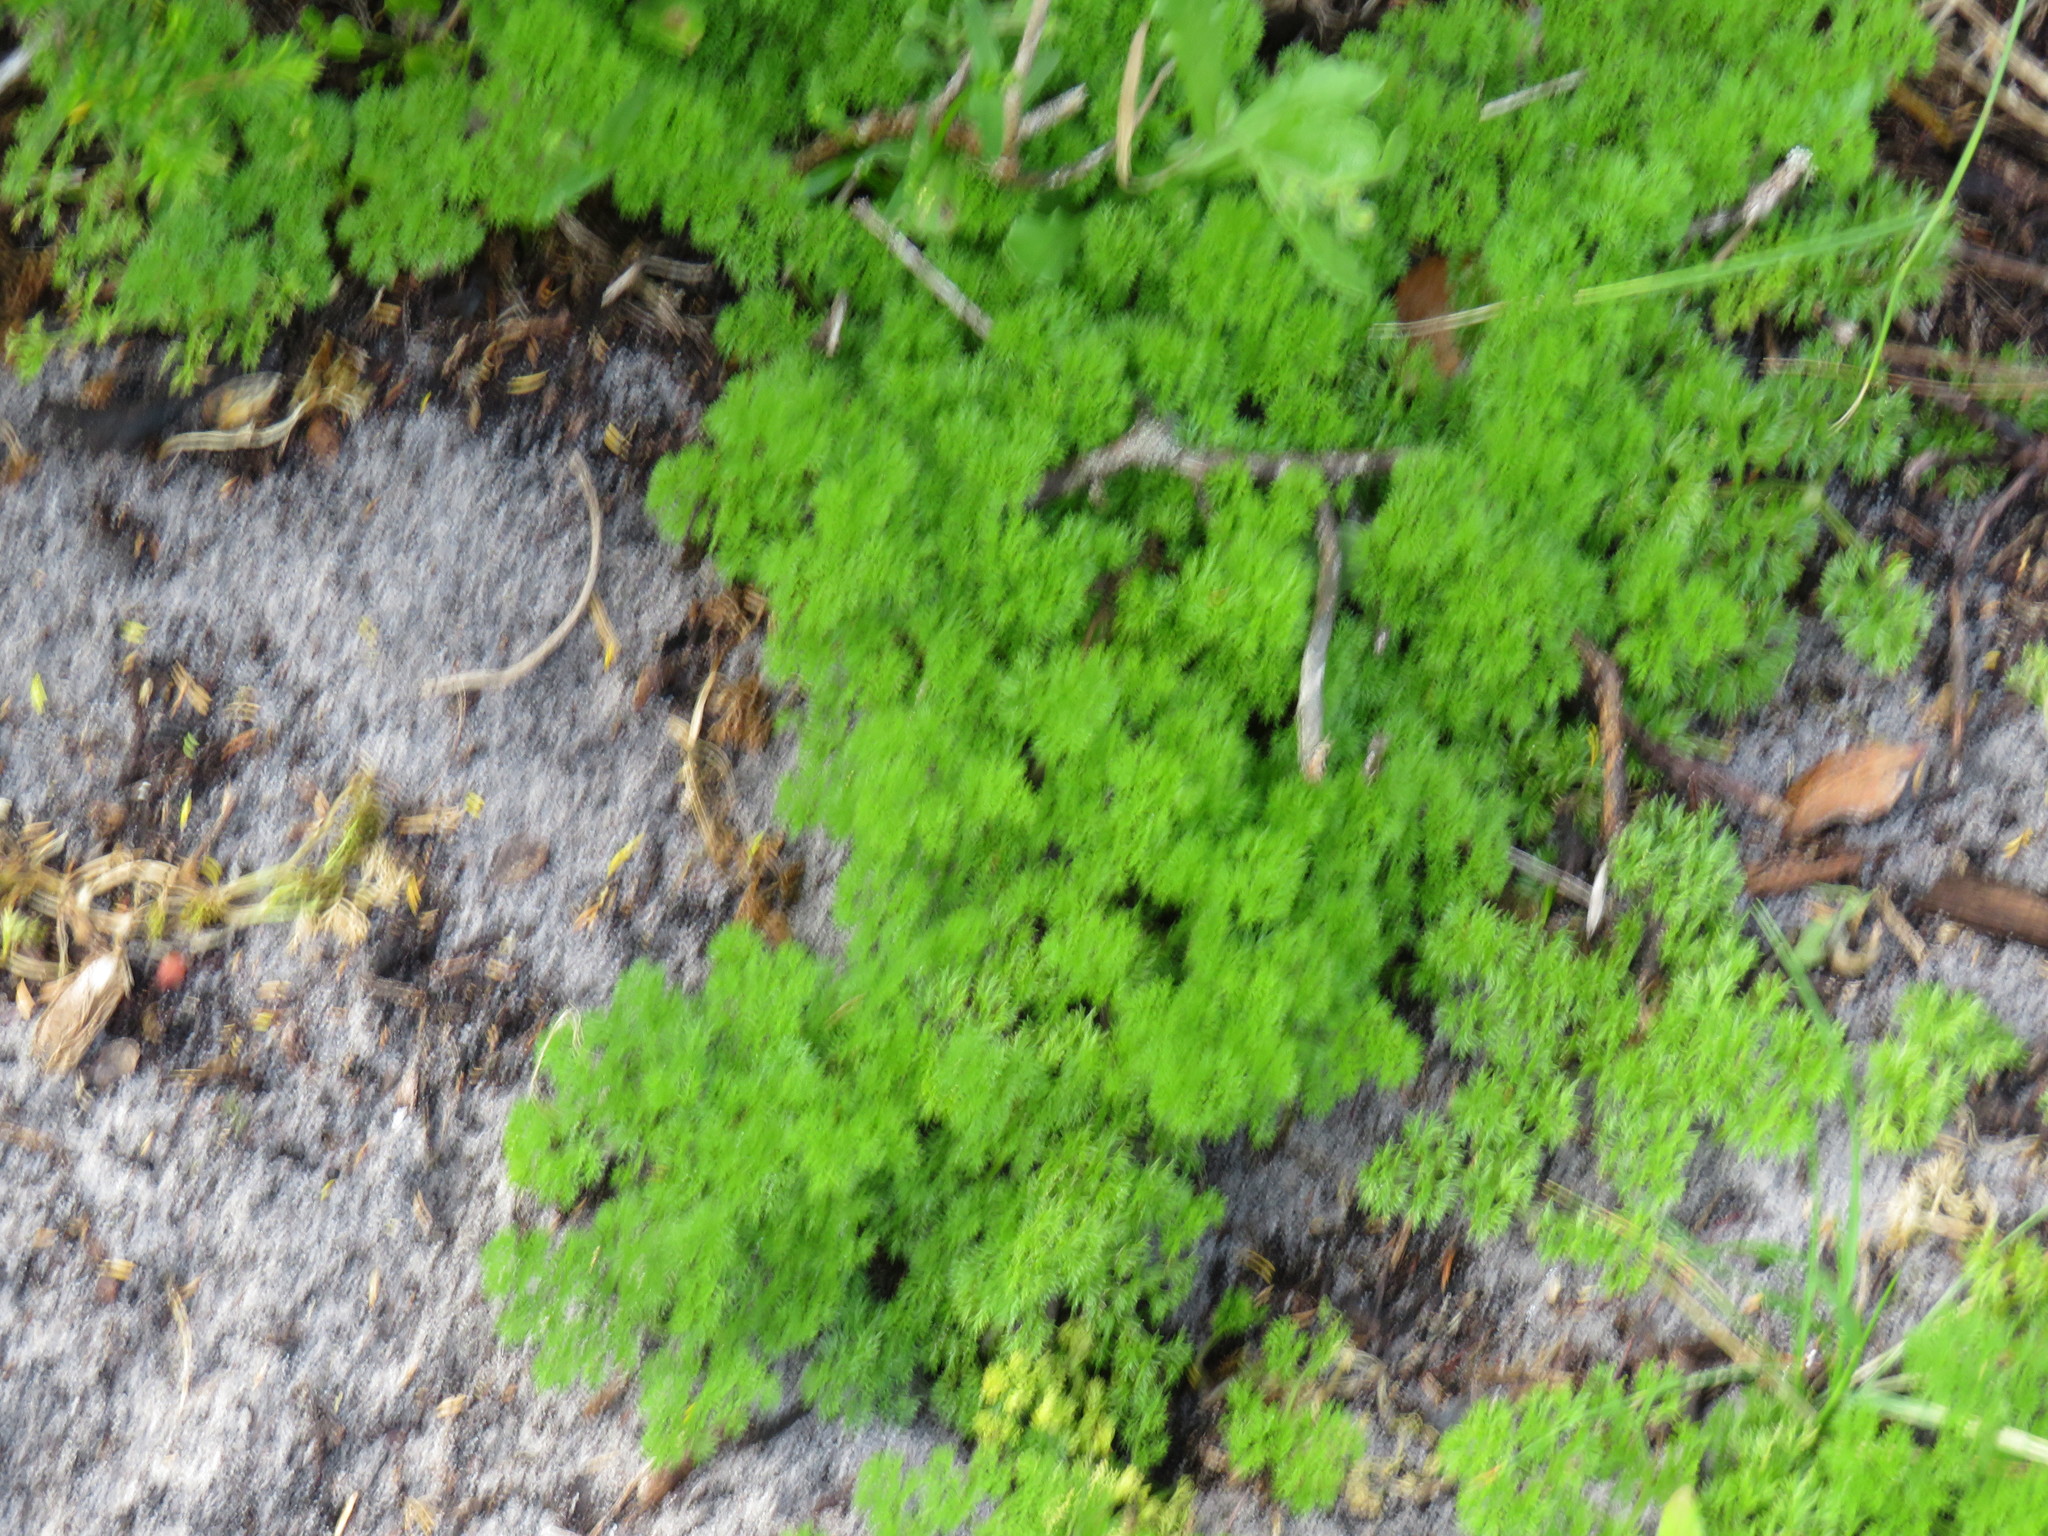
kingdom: Plantae
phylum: Tracheophyta
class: Magnoliopsida
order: Apiales
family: Apiaceae
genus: Annesorhiza
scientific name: Annesorhiza macrocarpa
